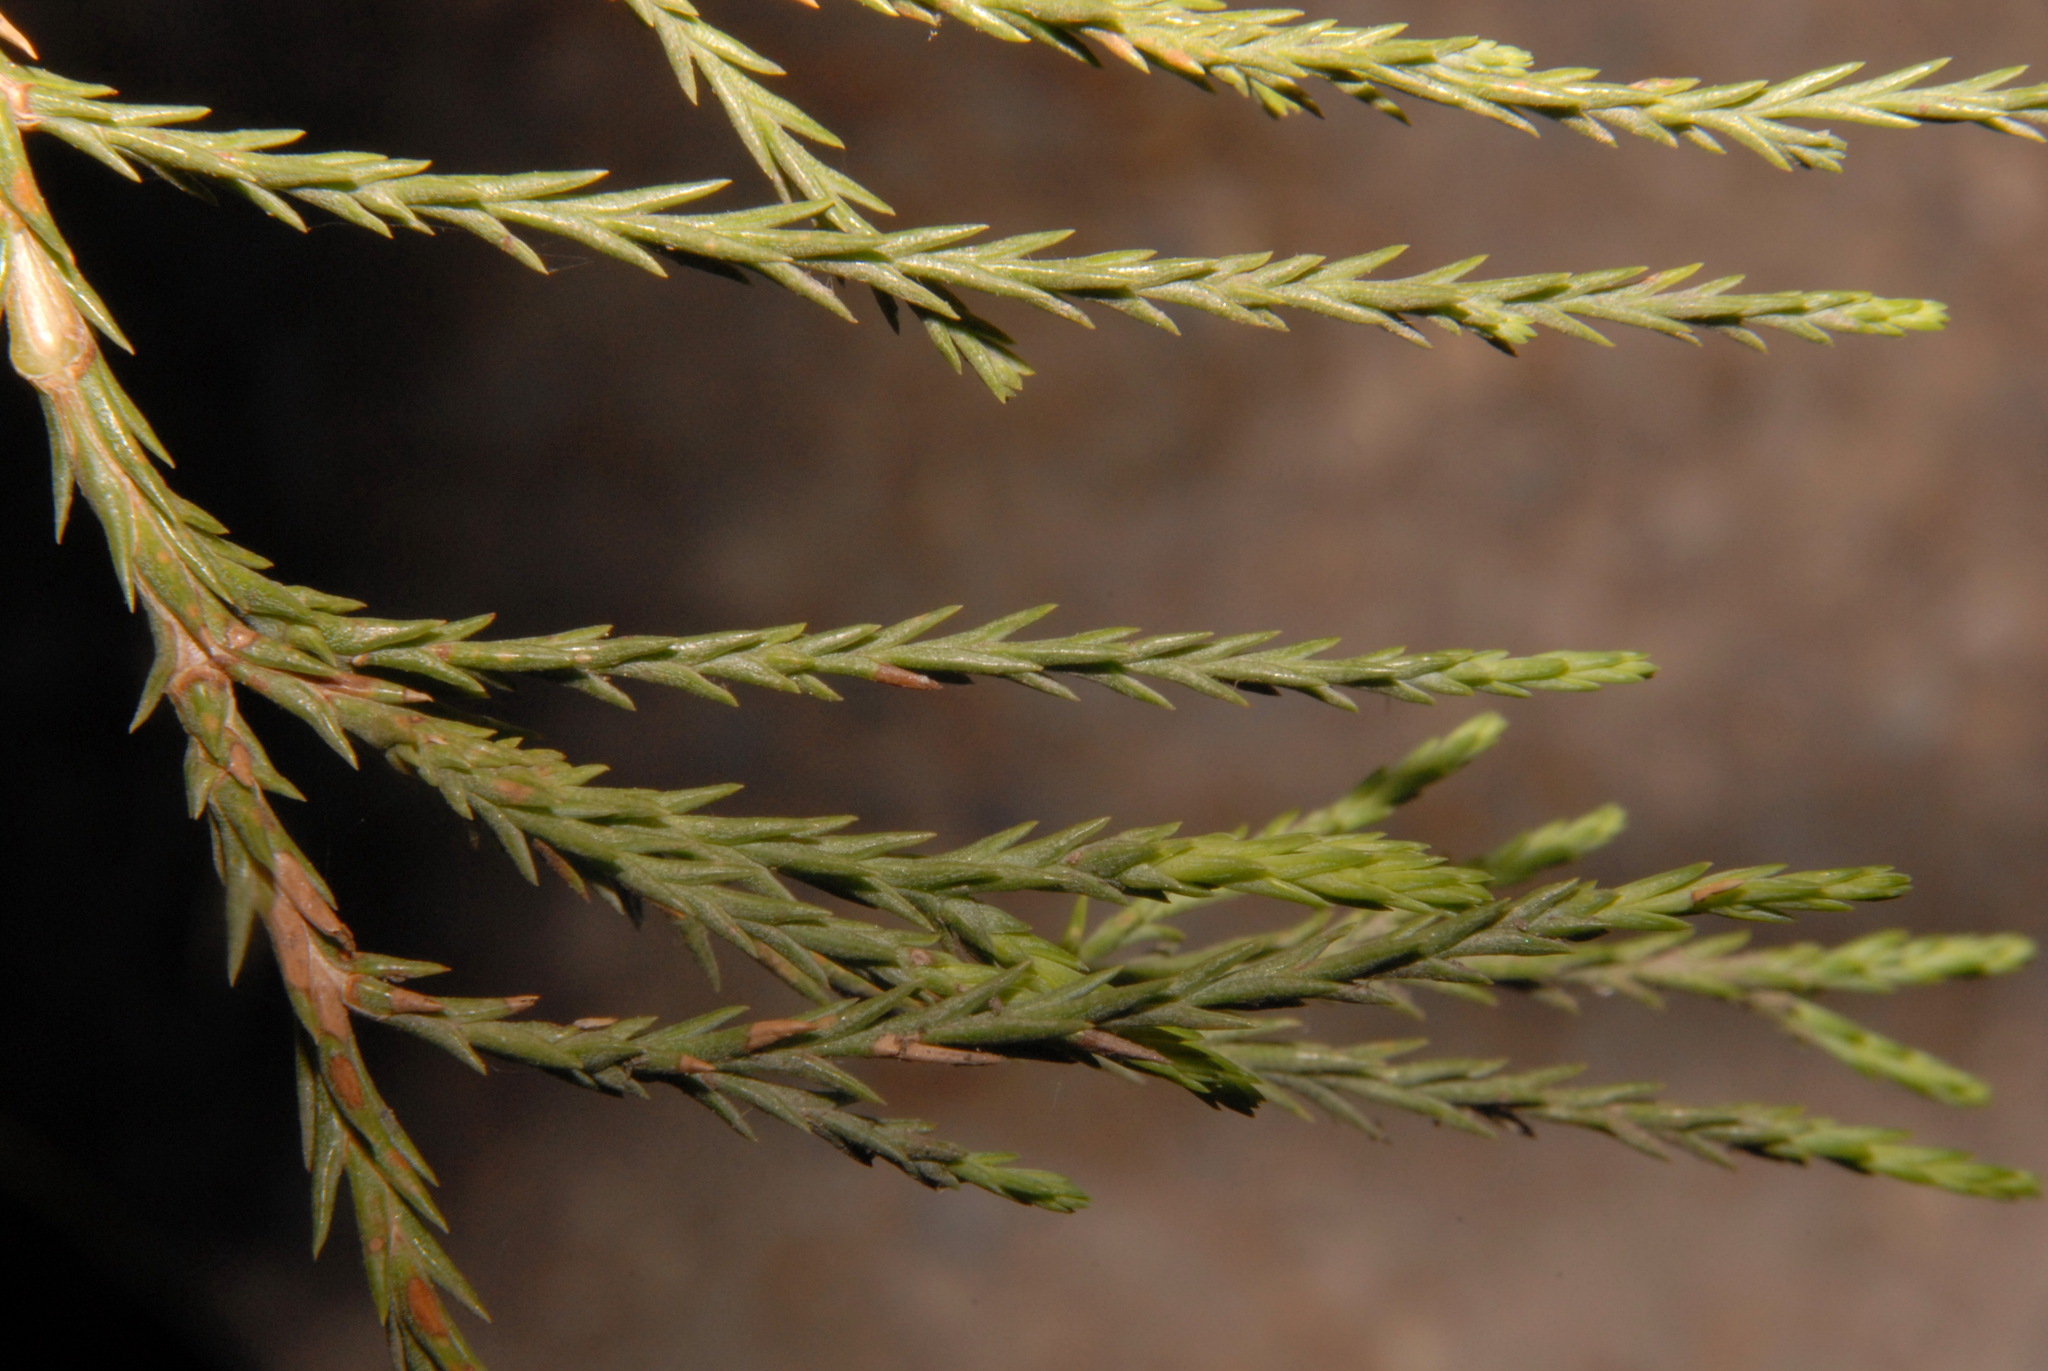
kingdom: Plantae
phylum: Tracheophyta
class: Pinopsida
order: Pinales
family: Cupressaceae
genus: Sequoiadendron
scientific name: Sequoiadendron giganteum
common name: Wellingtonia
